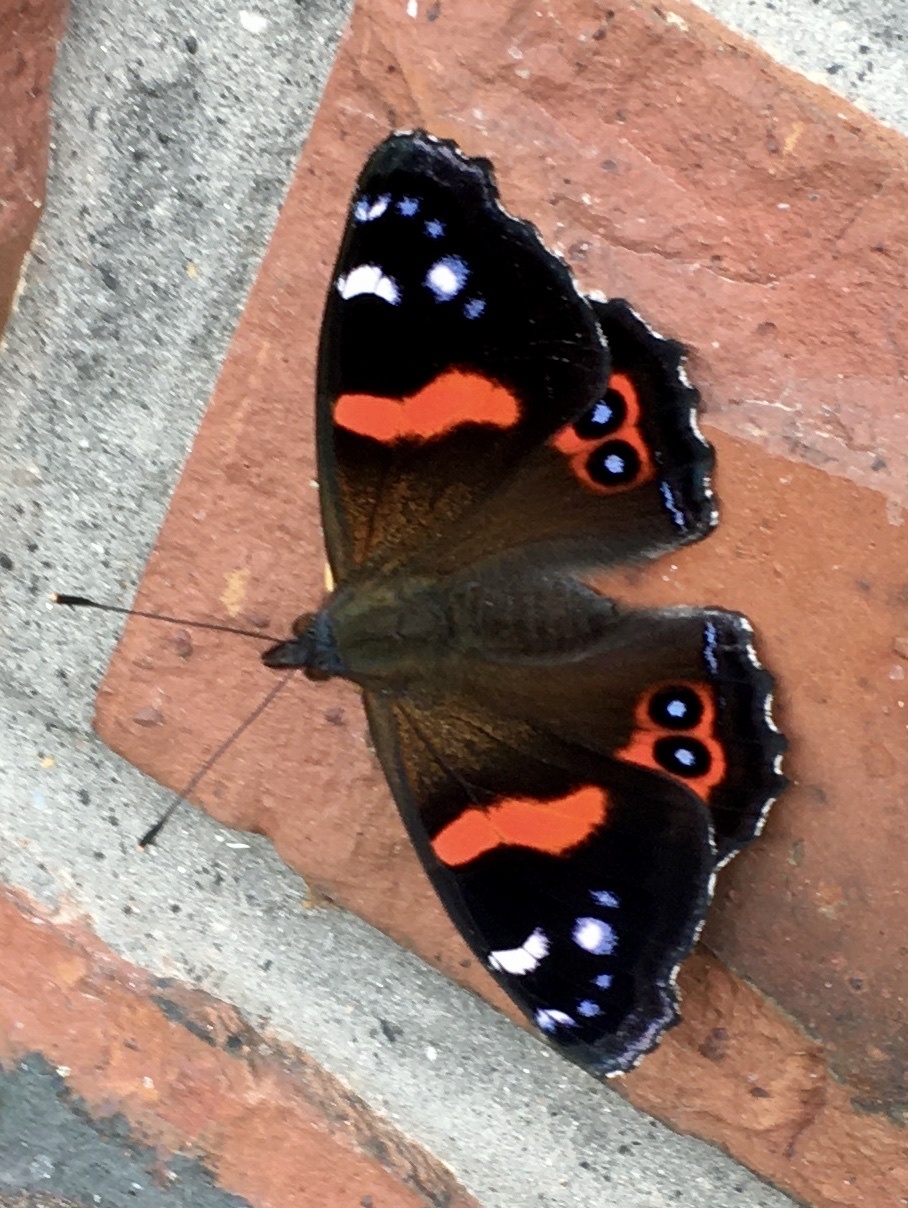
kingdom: Animalia
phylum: Arthropoda
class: Insecta
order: Lepidoptera
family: Nymphalidae
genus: Vanessa
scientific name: Vanessa gonerilla
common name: New zealand red admiral
